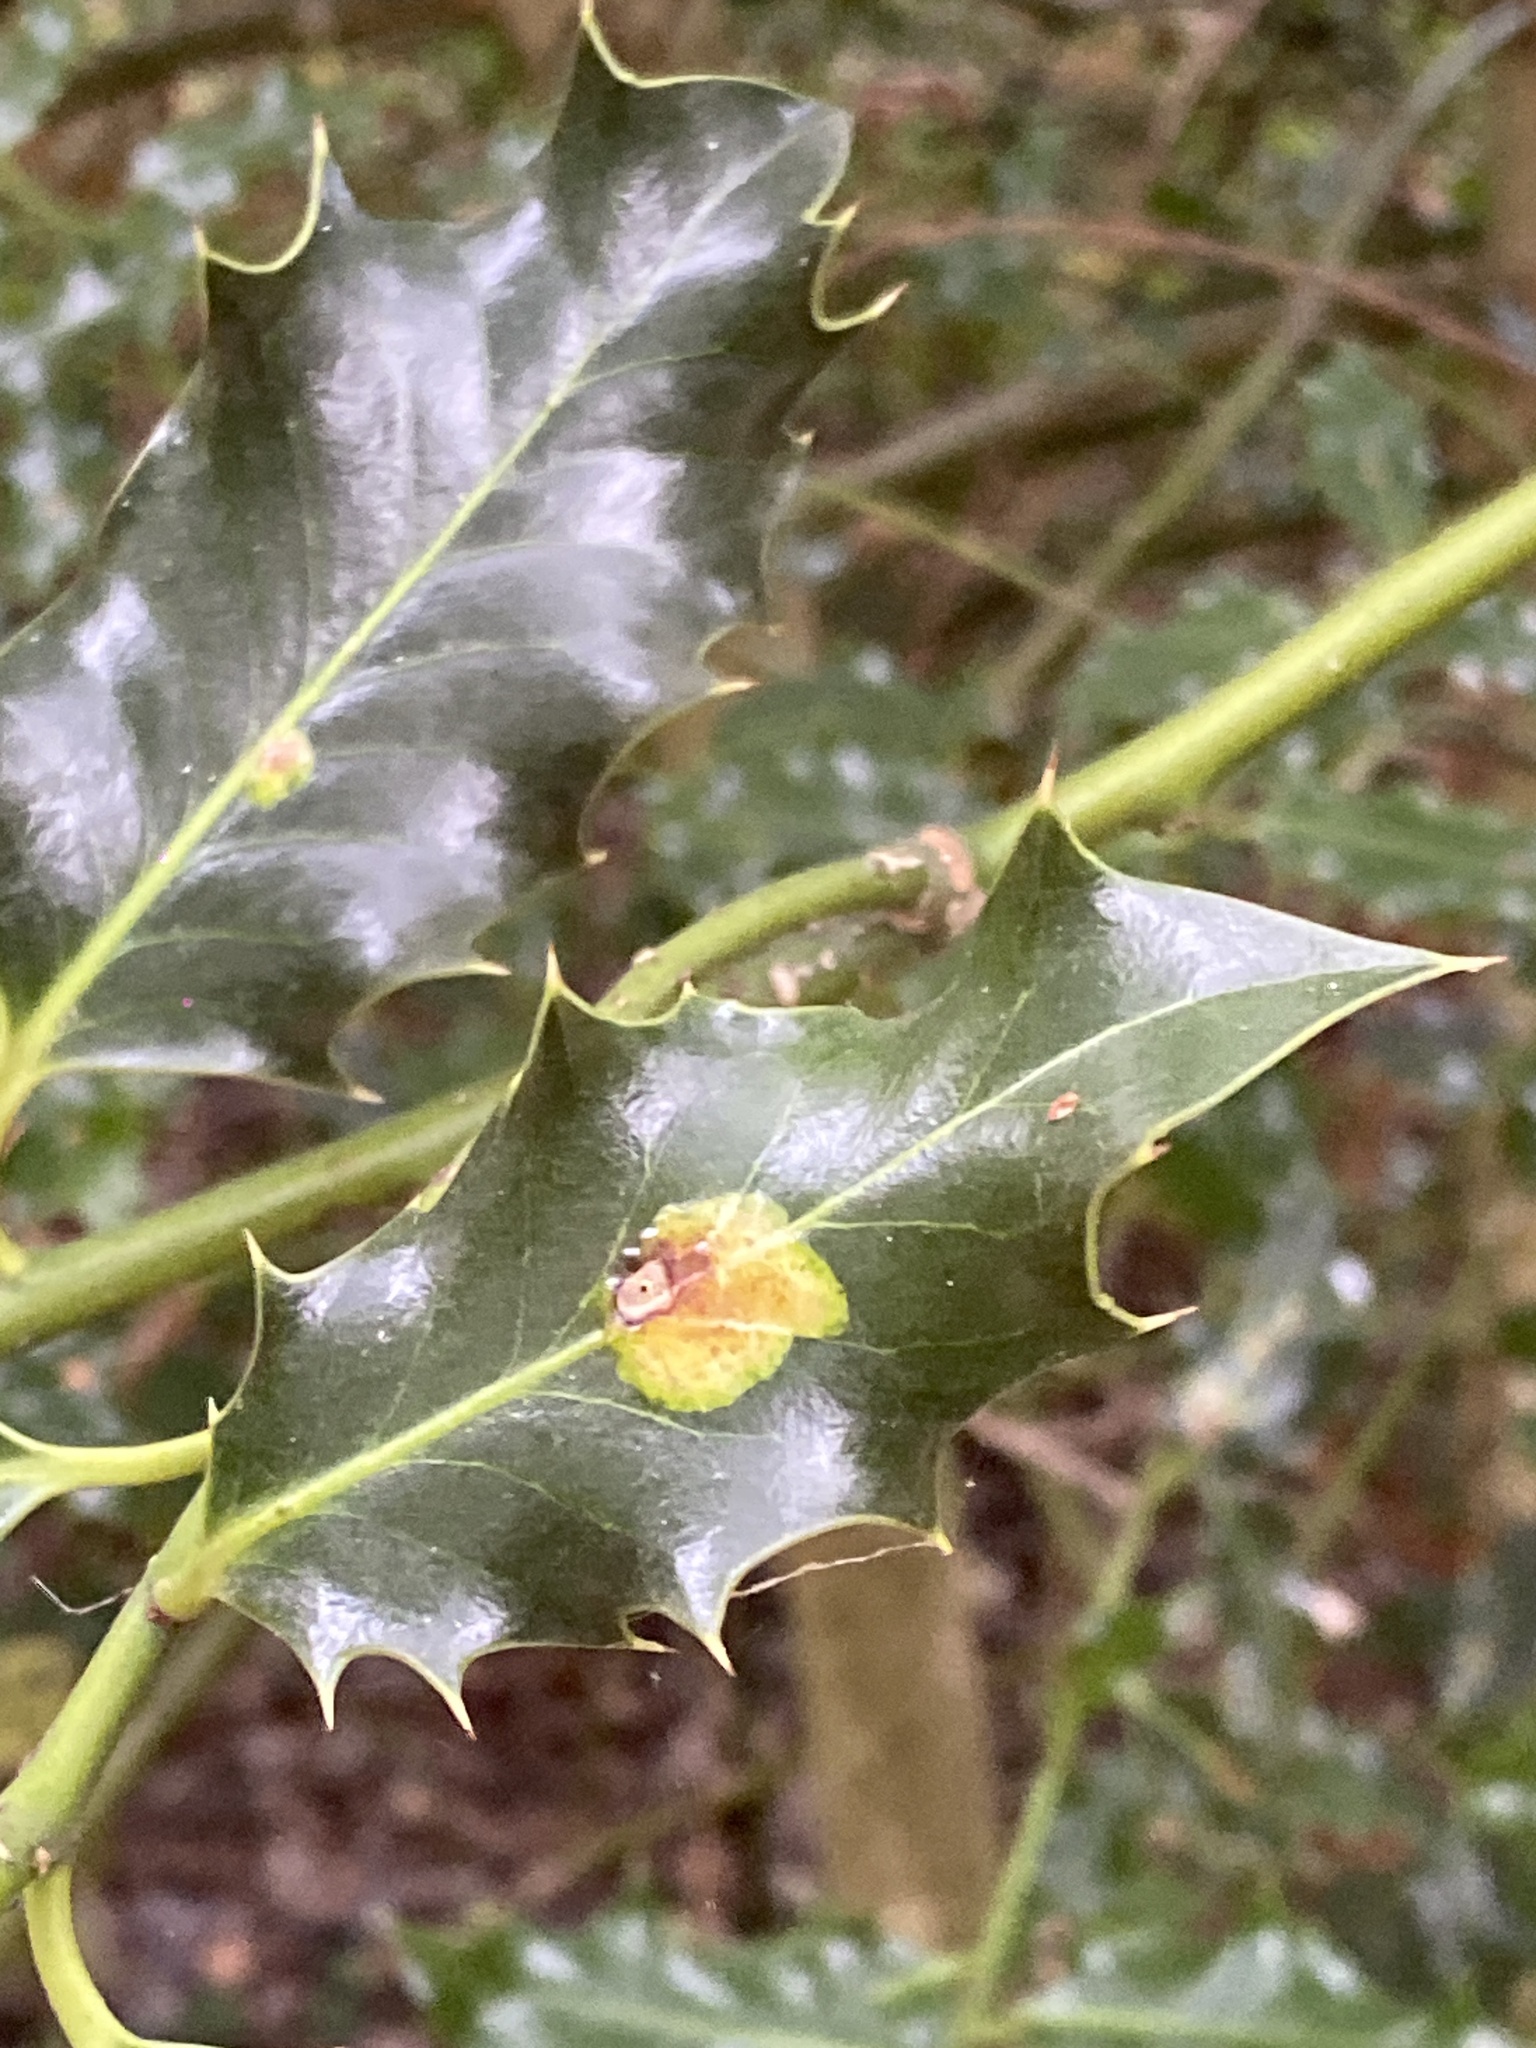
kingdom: Animalia
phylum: Arthropoda
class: Insecta
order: Diptera
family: Agromyzidae
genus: Phytomyza
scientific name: Phytomyza ilicis
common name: Holly leafminer
